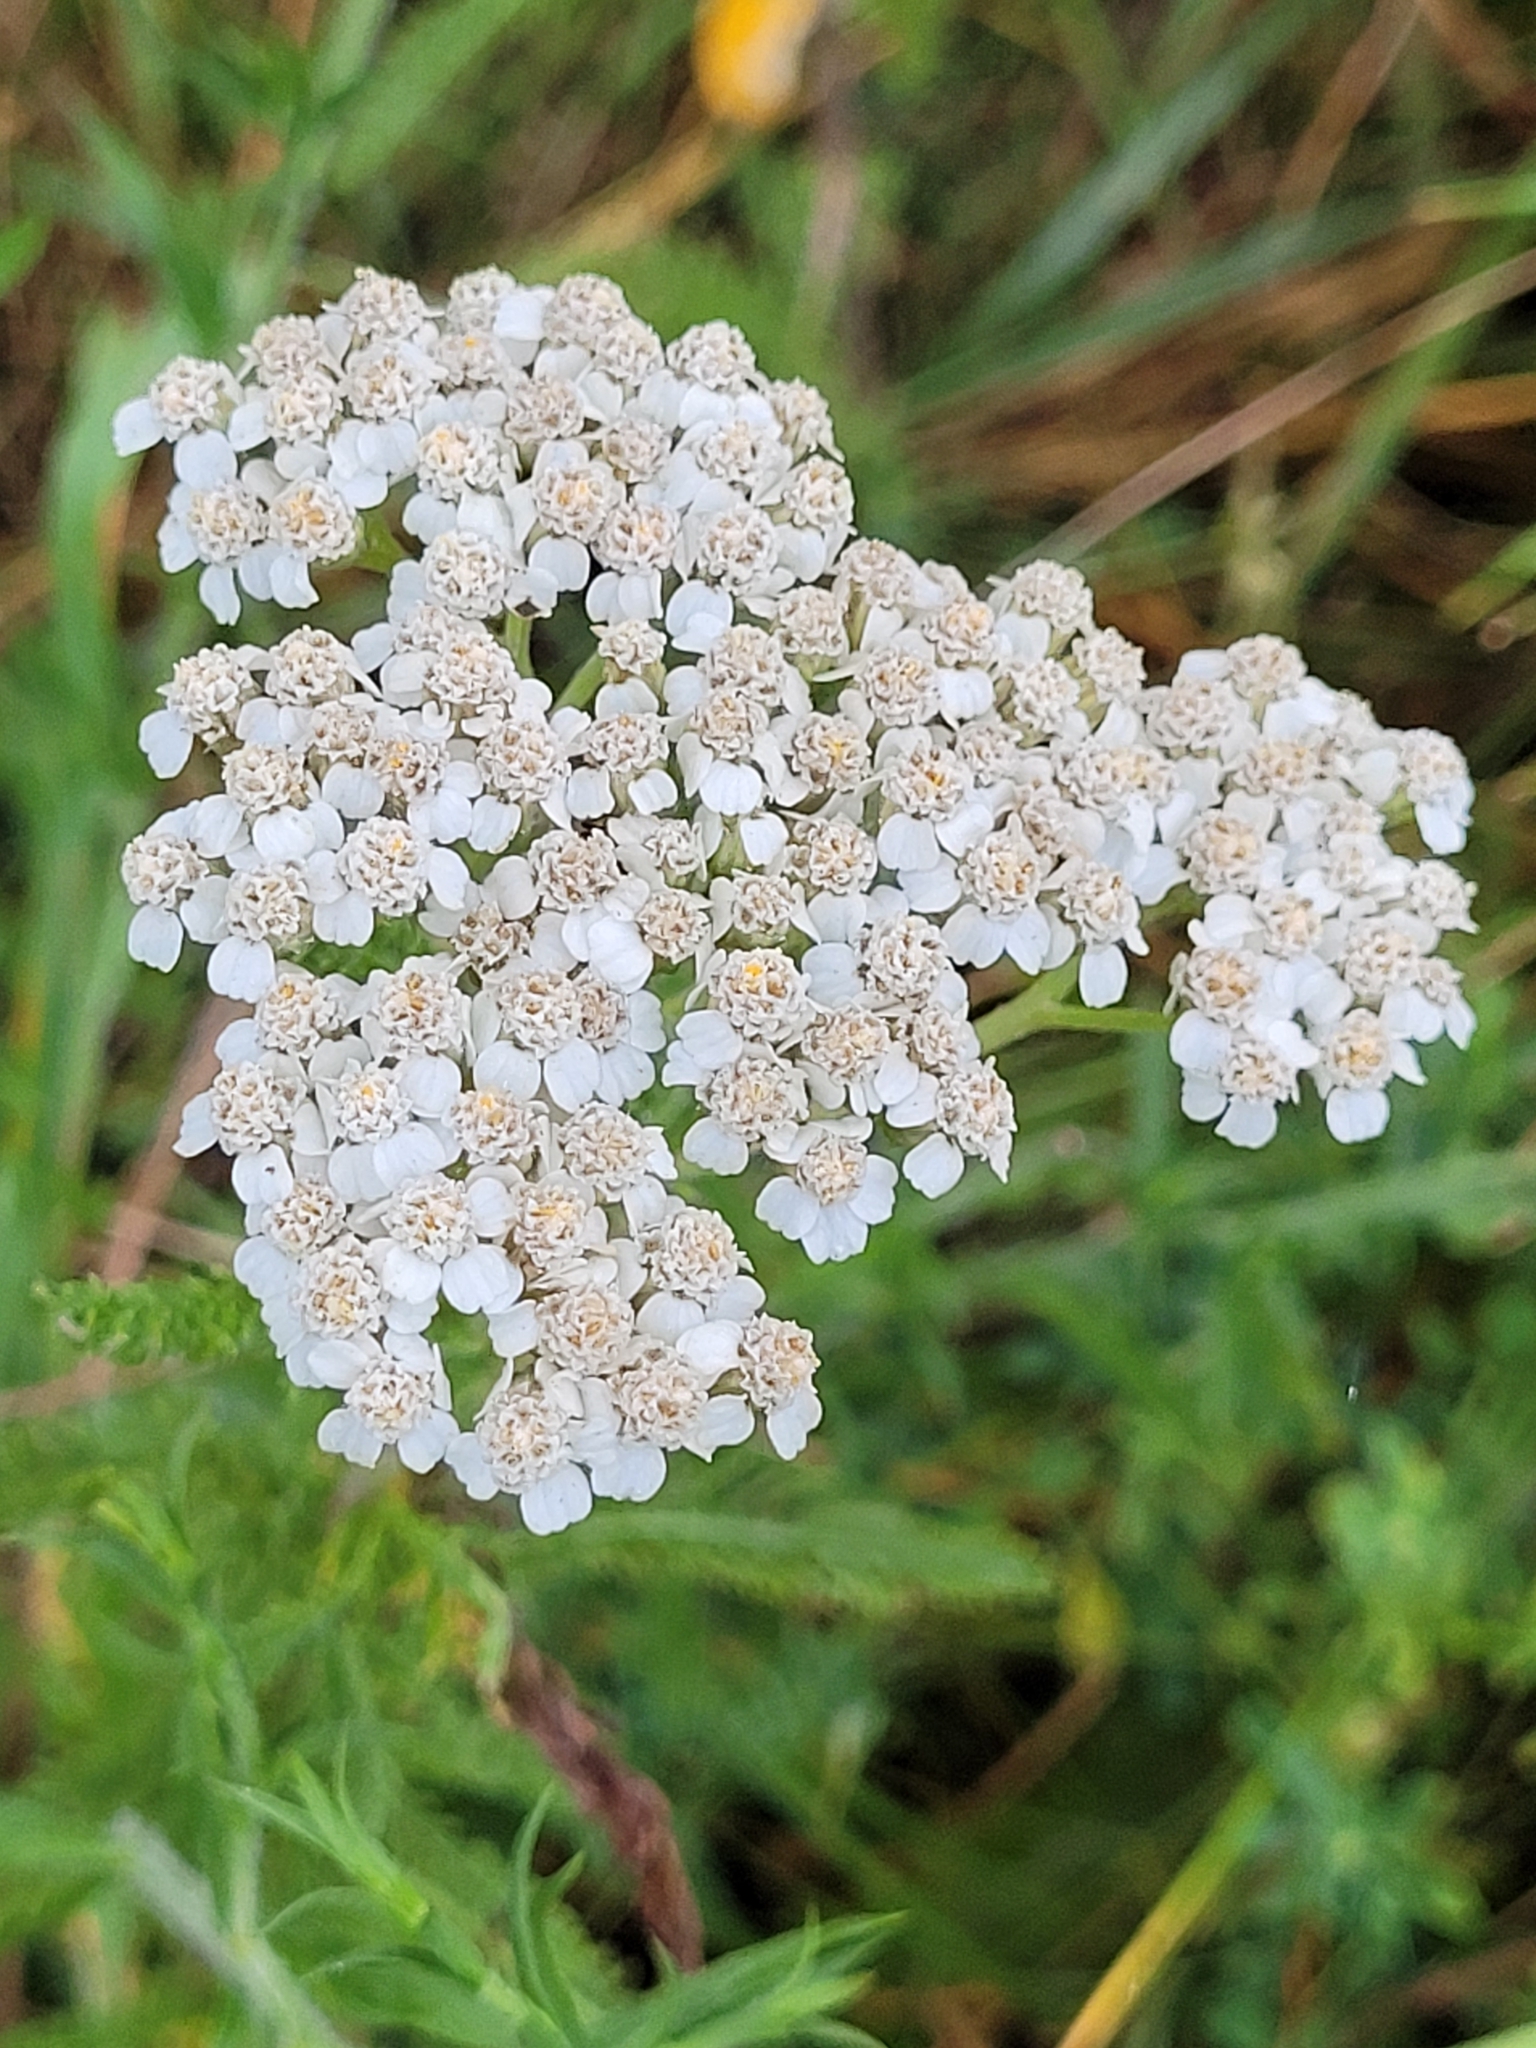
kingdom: Plantae
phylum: Tracheophyta
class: Magnoliopsida
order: Asterales
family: Asteraceae
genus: Achillea
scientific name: Achillea millefolium
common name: Yarrow
